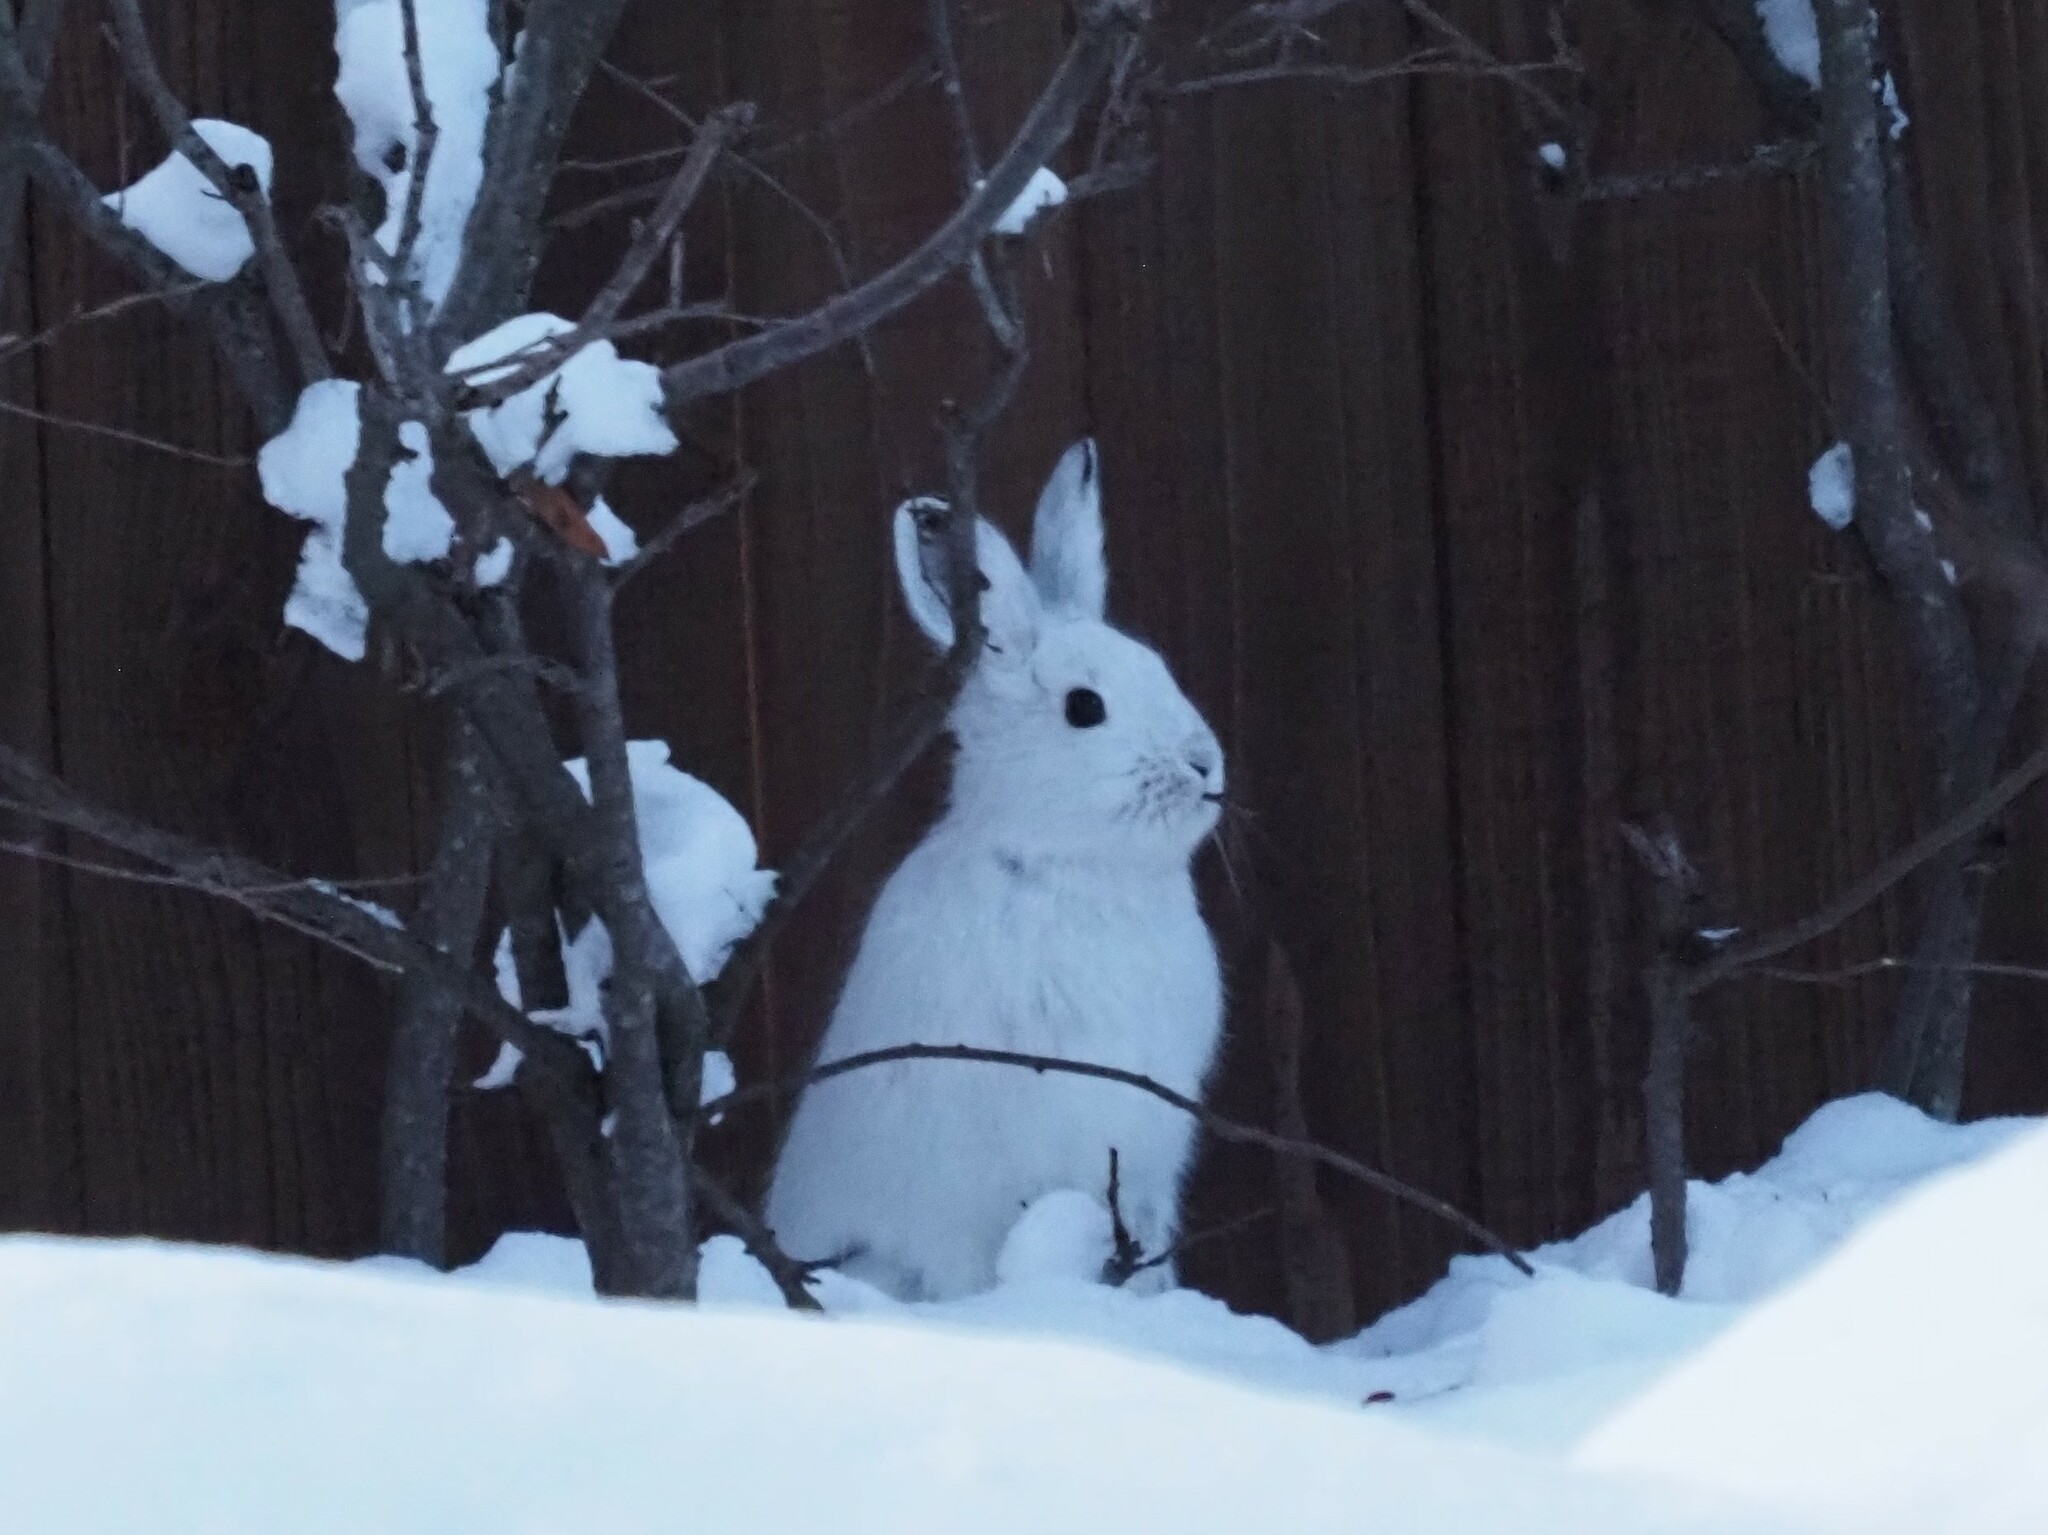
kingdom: Animalia
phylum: Chordata
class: Mammalia
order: Lagomorpha
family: Leporidae
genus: Lepus
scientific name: Lepus americanus
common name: Snowshoe hare
